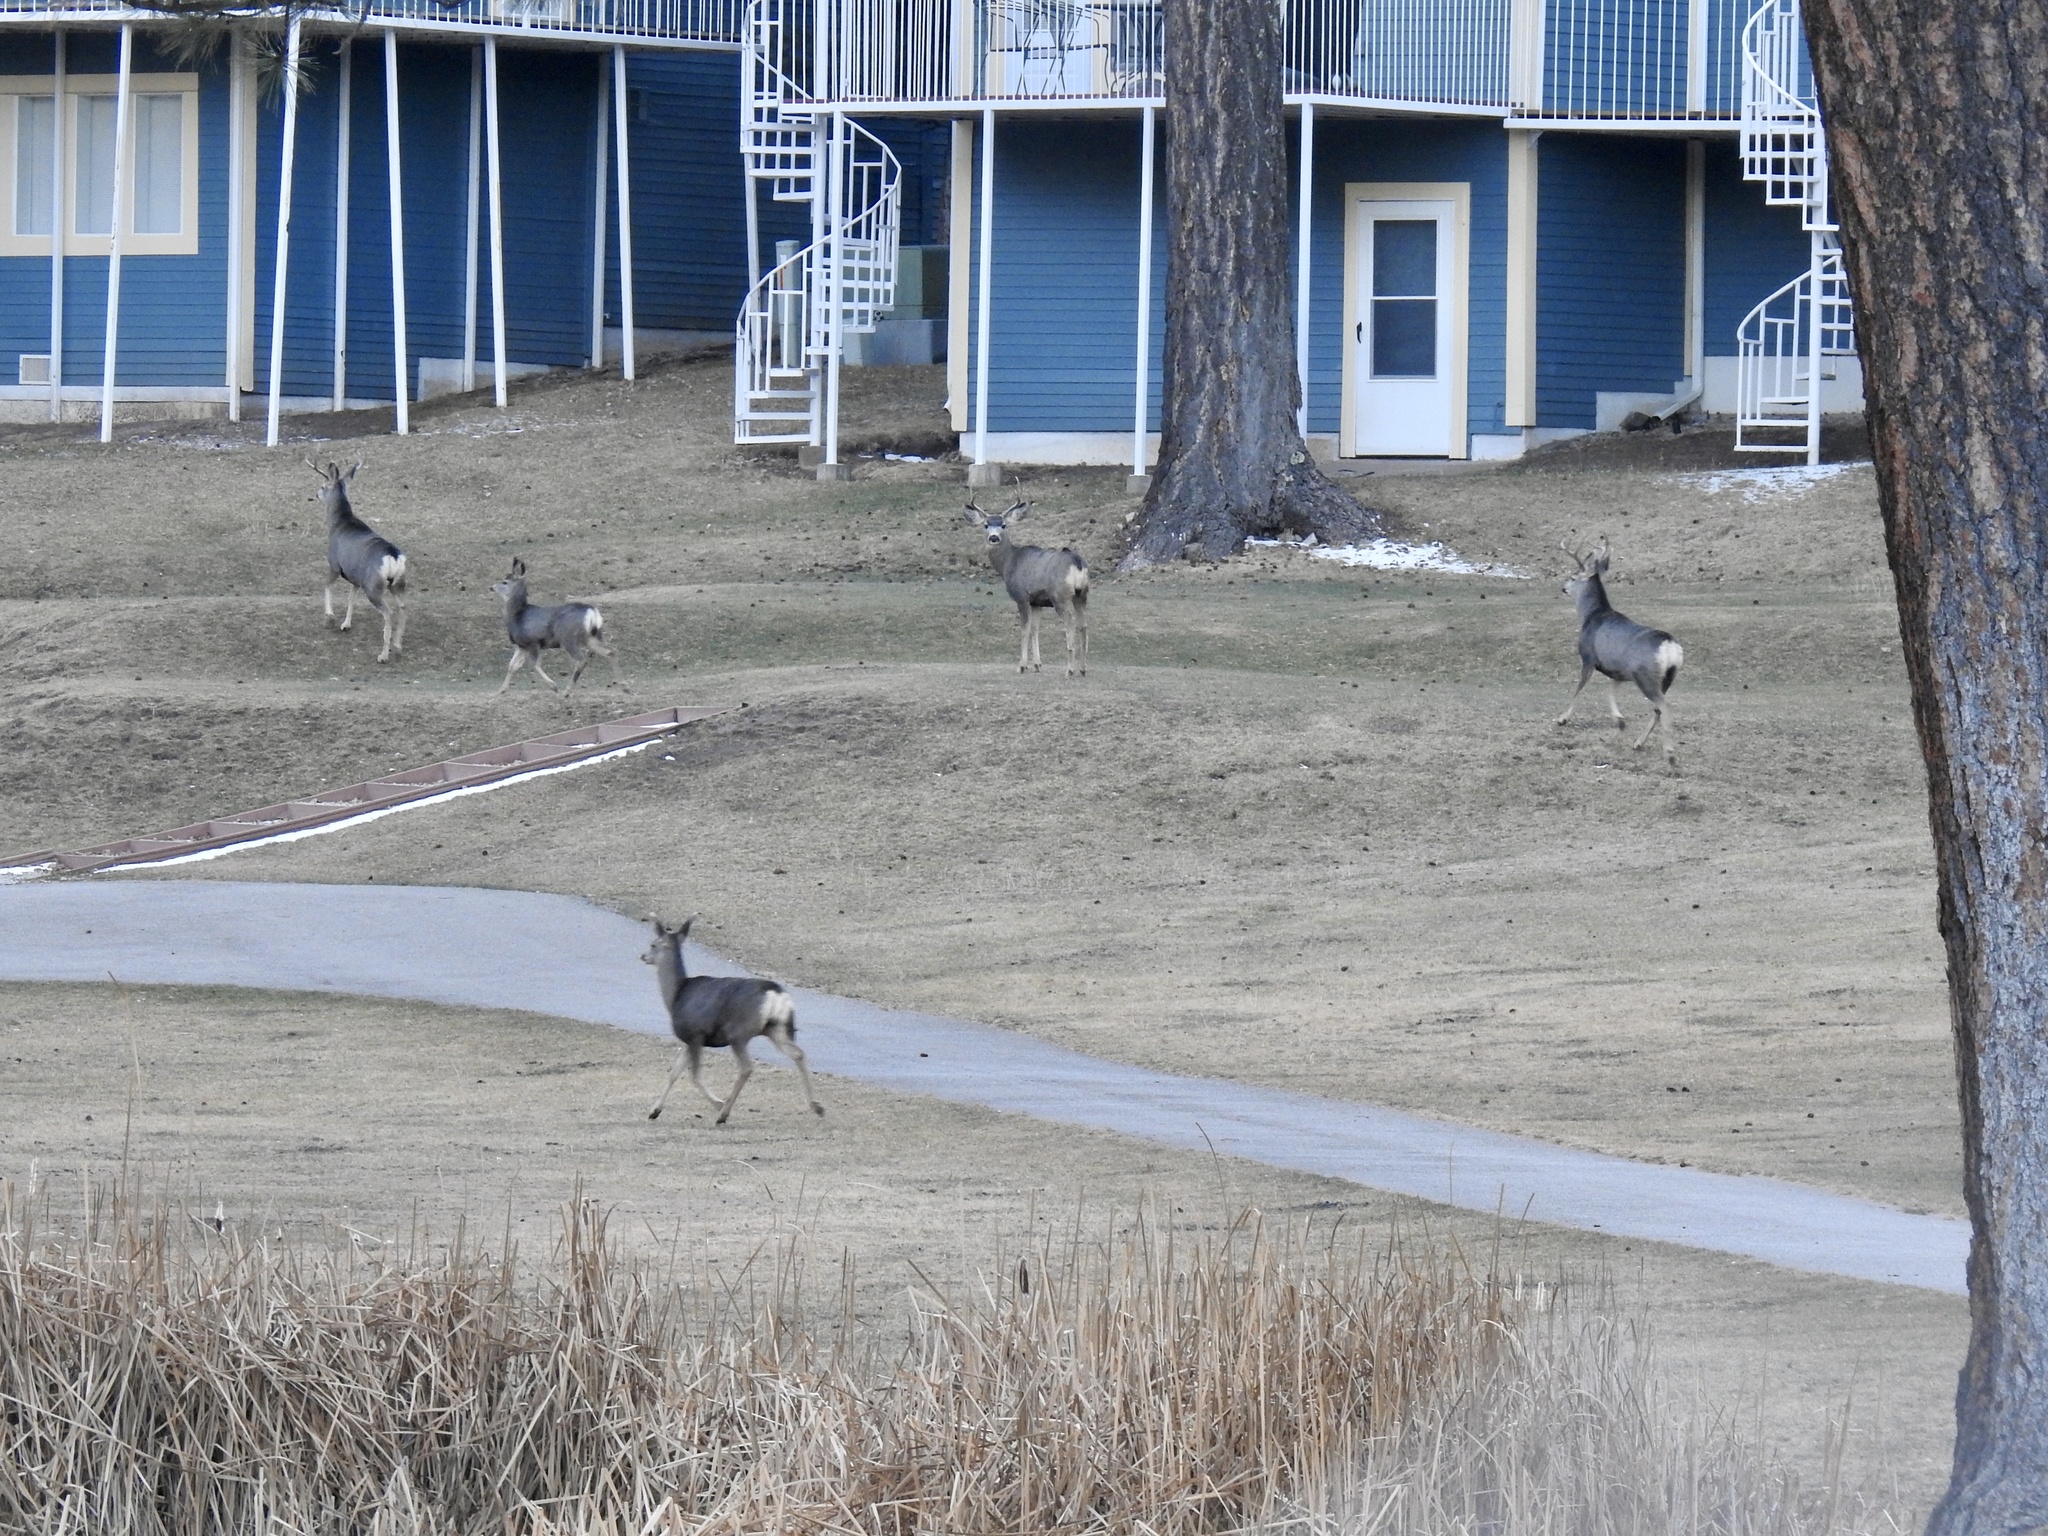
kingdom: Animalia
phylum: Chordata
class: Mammalia
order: Artiodactyla
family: Cervidae
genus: Odocoileus
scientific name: Odocoileus hemionus
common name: Mule deer
